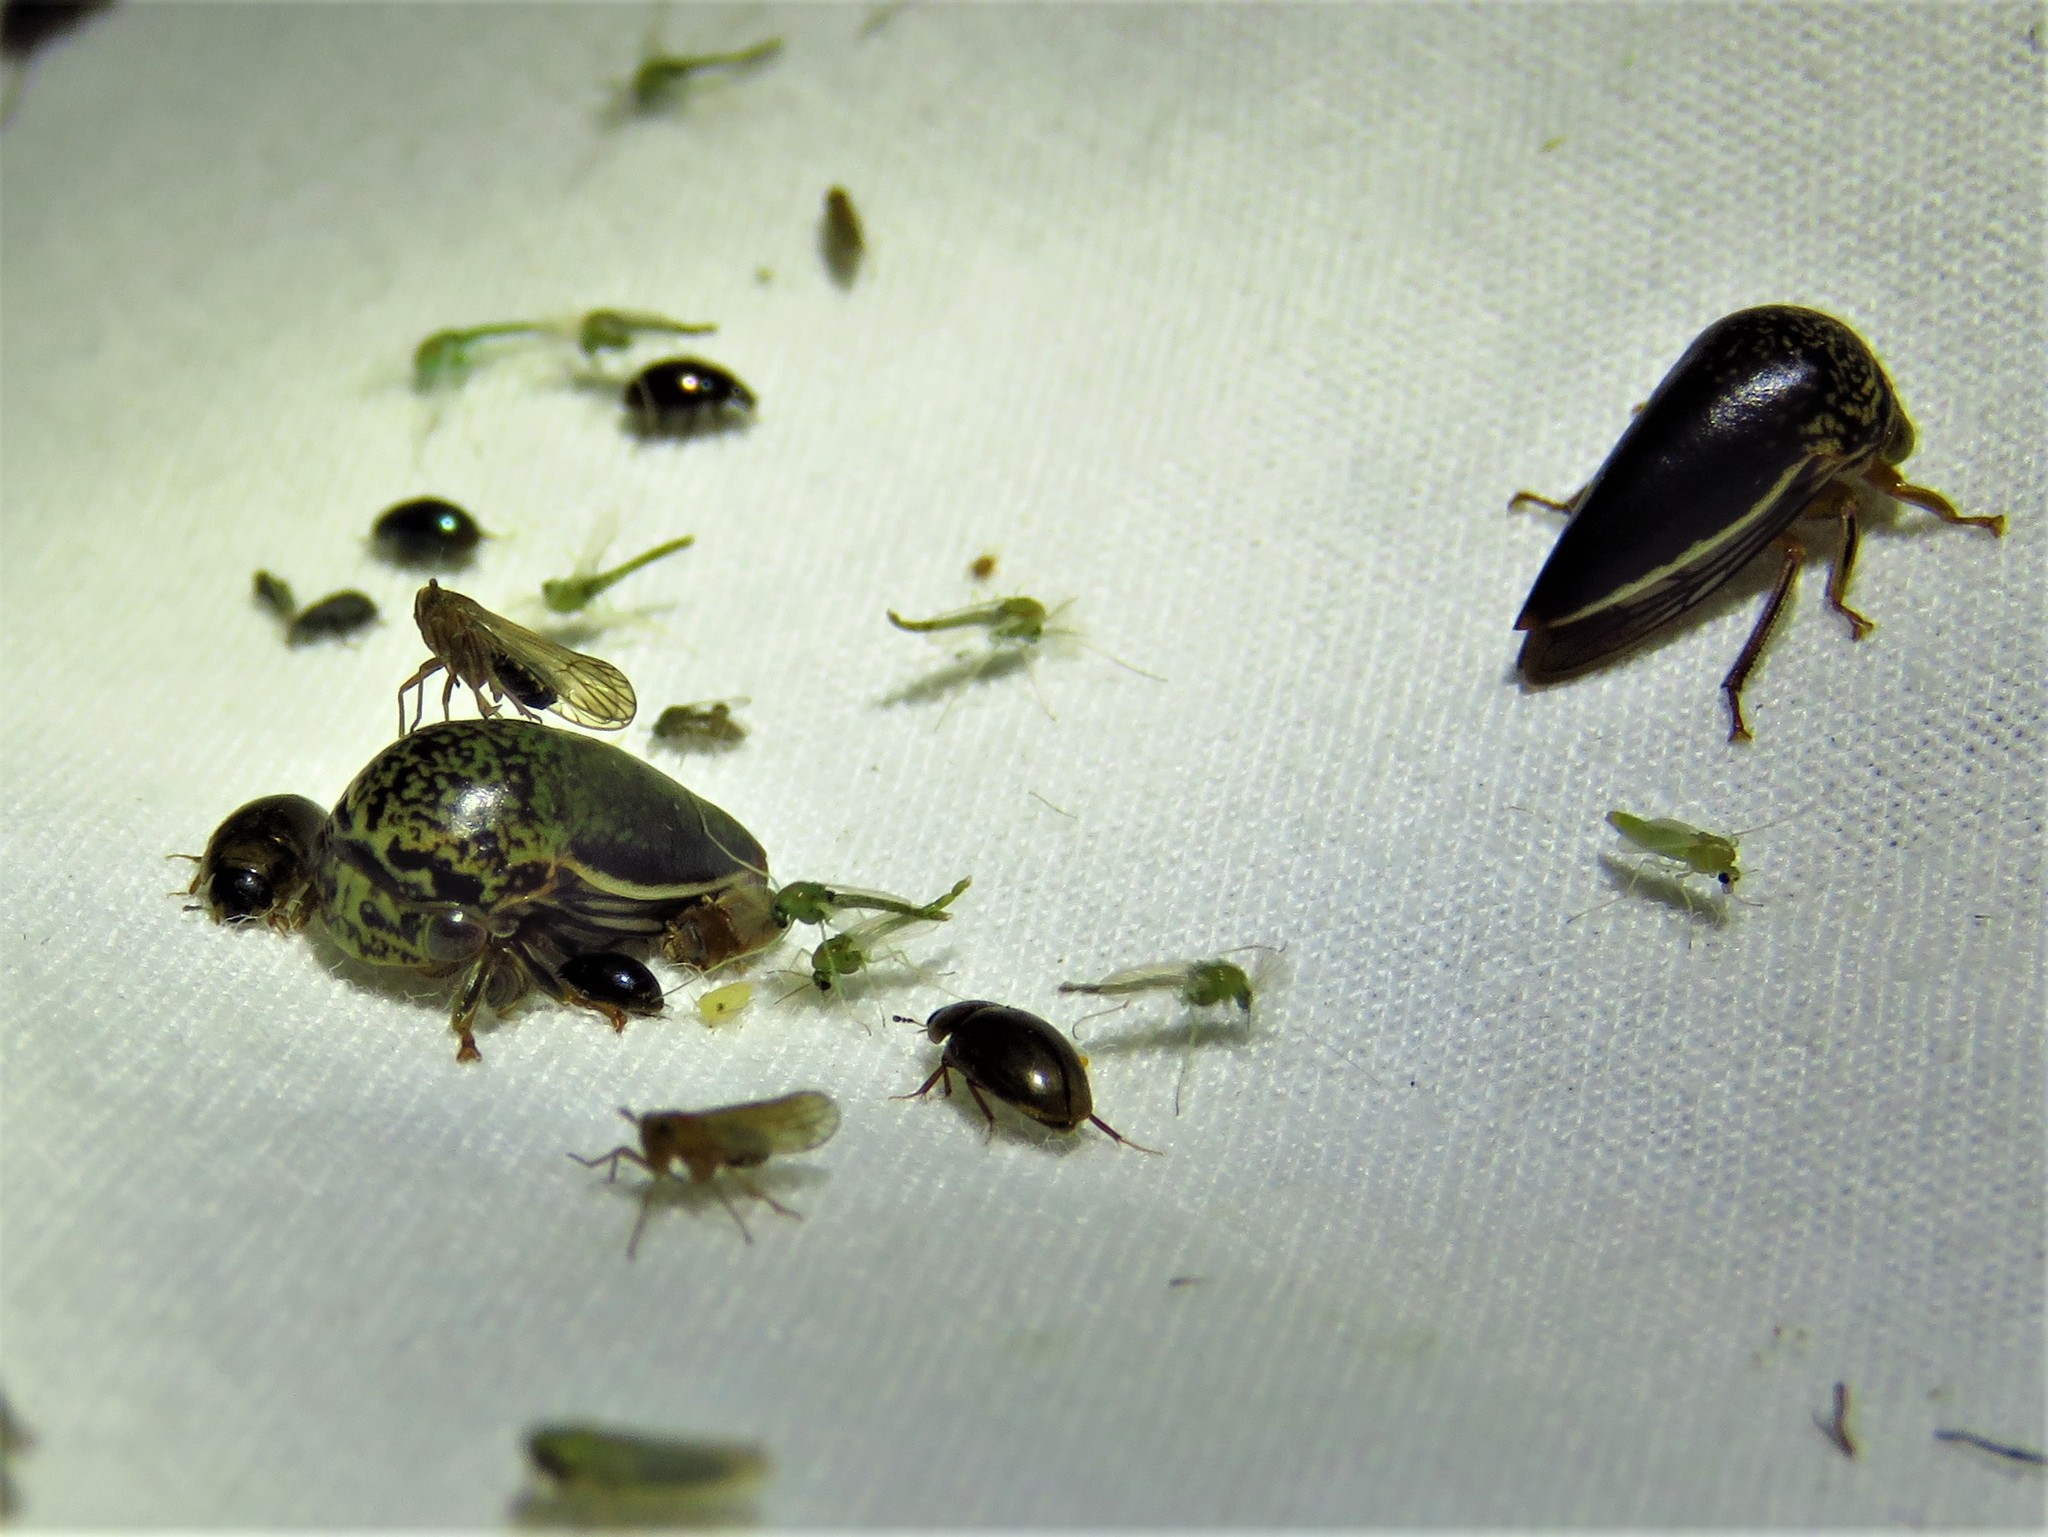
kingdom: Animalia
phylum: Arthropoda
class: Insecta
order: Hemiptera
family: Membracidae
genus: Stictopelta
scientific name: Stictopelta marmorata
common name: Treehopper
